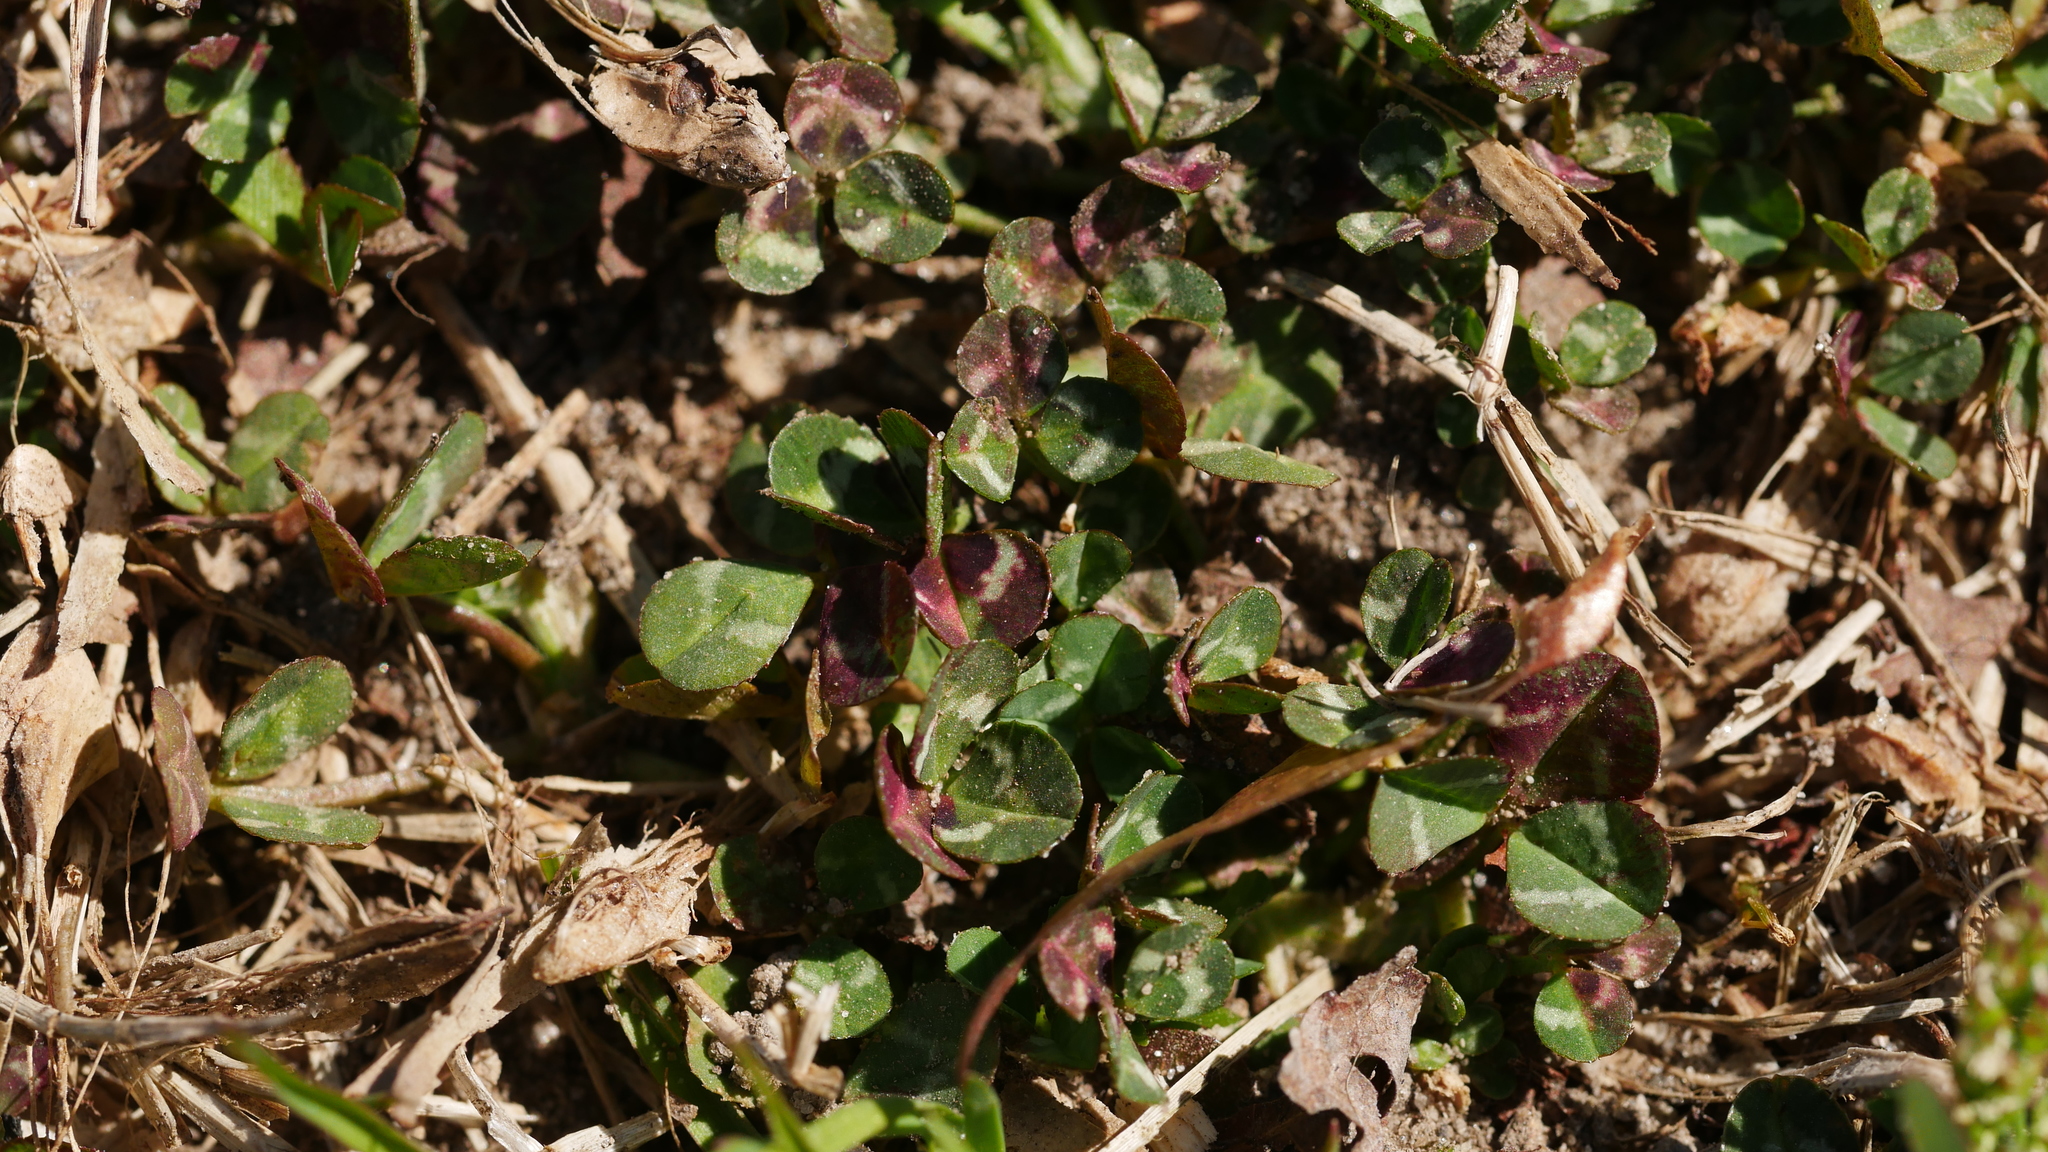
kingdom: Plantae
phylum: Tracheophyta
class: Magnoliopsida
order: Fabales
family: Fabaceae
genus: Trifolium
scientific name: Trifolium repens
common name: White clover
